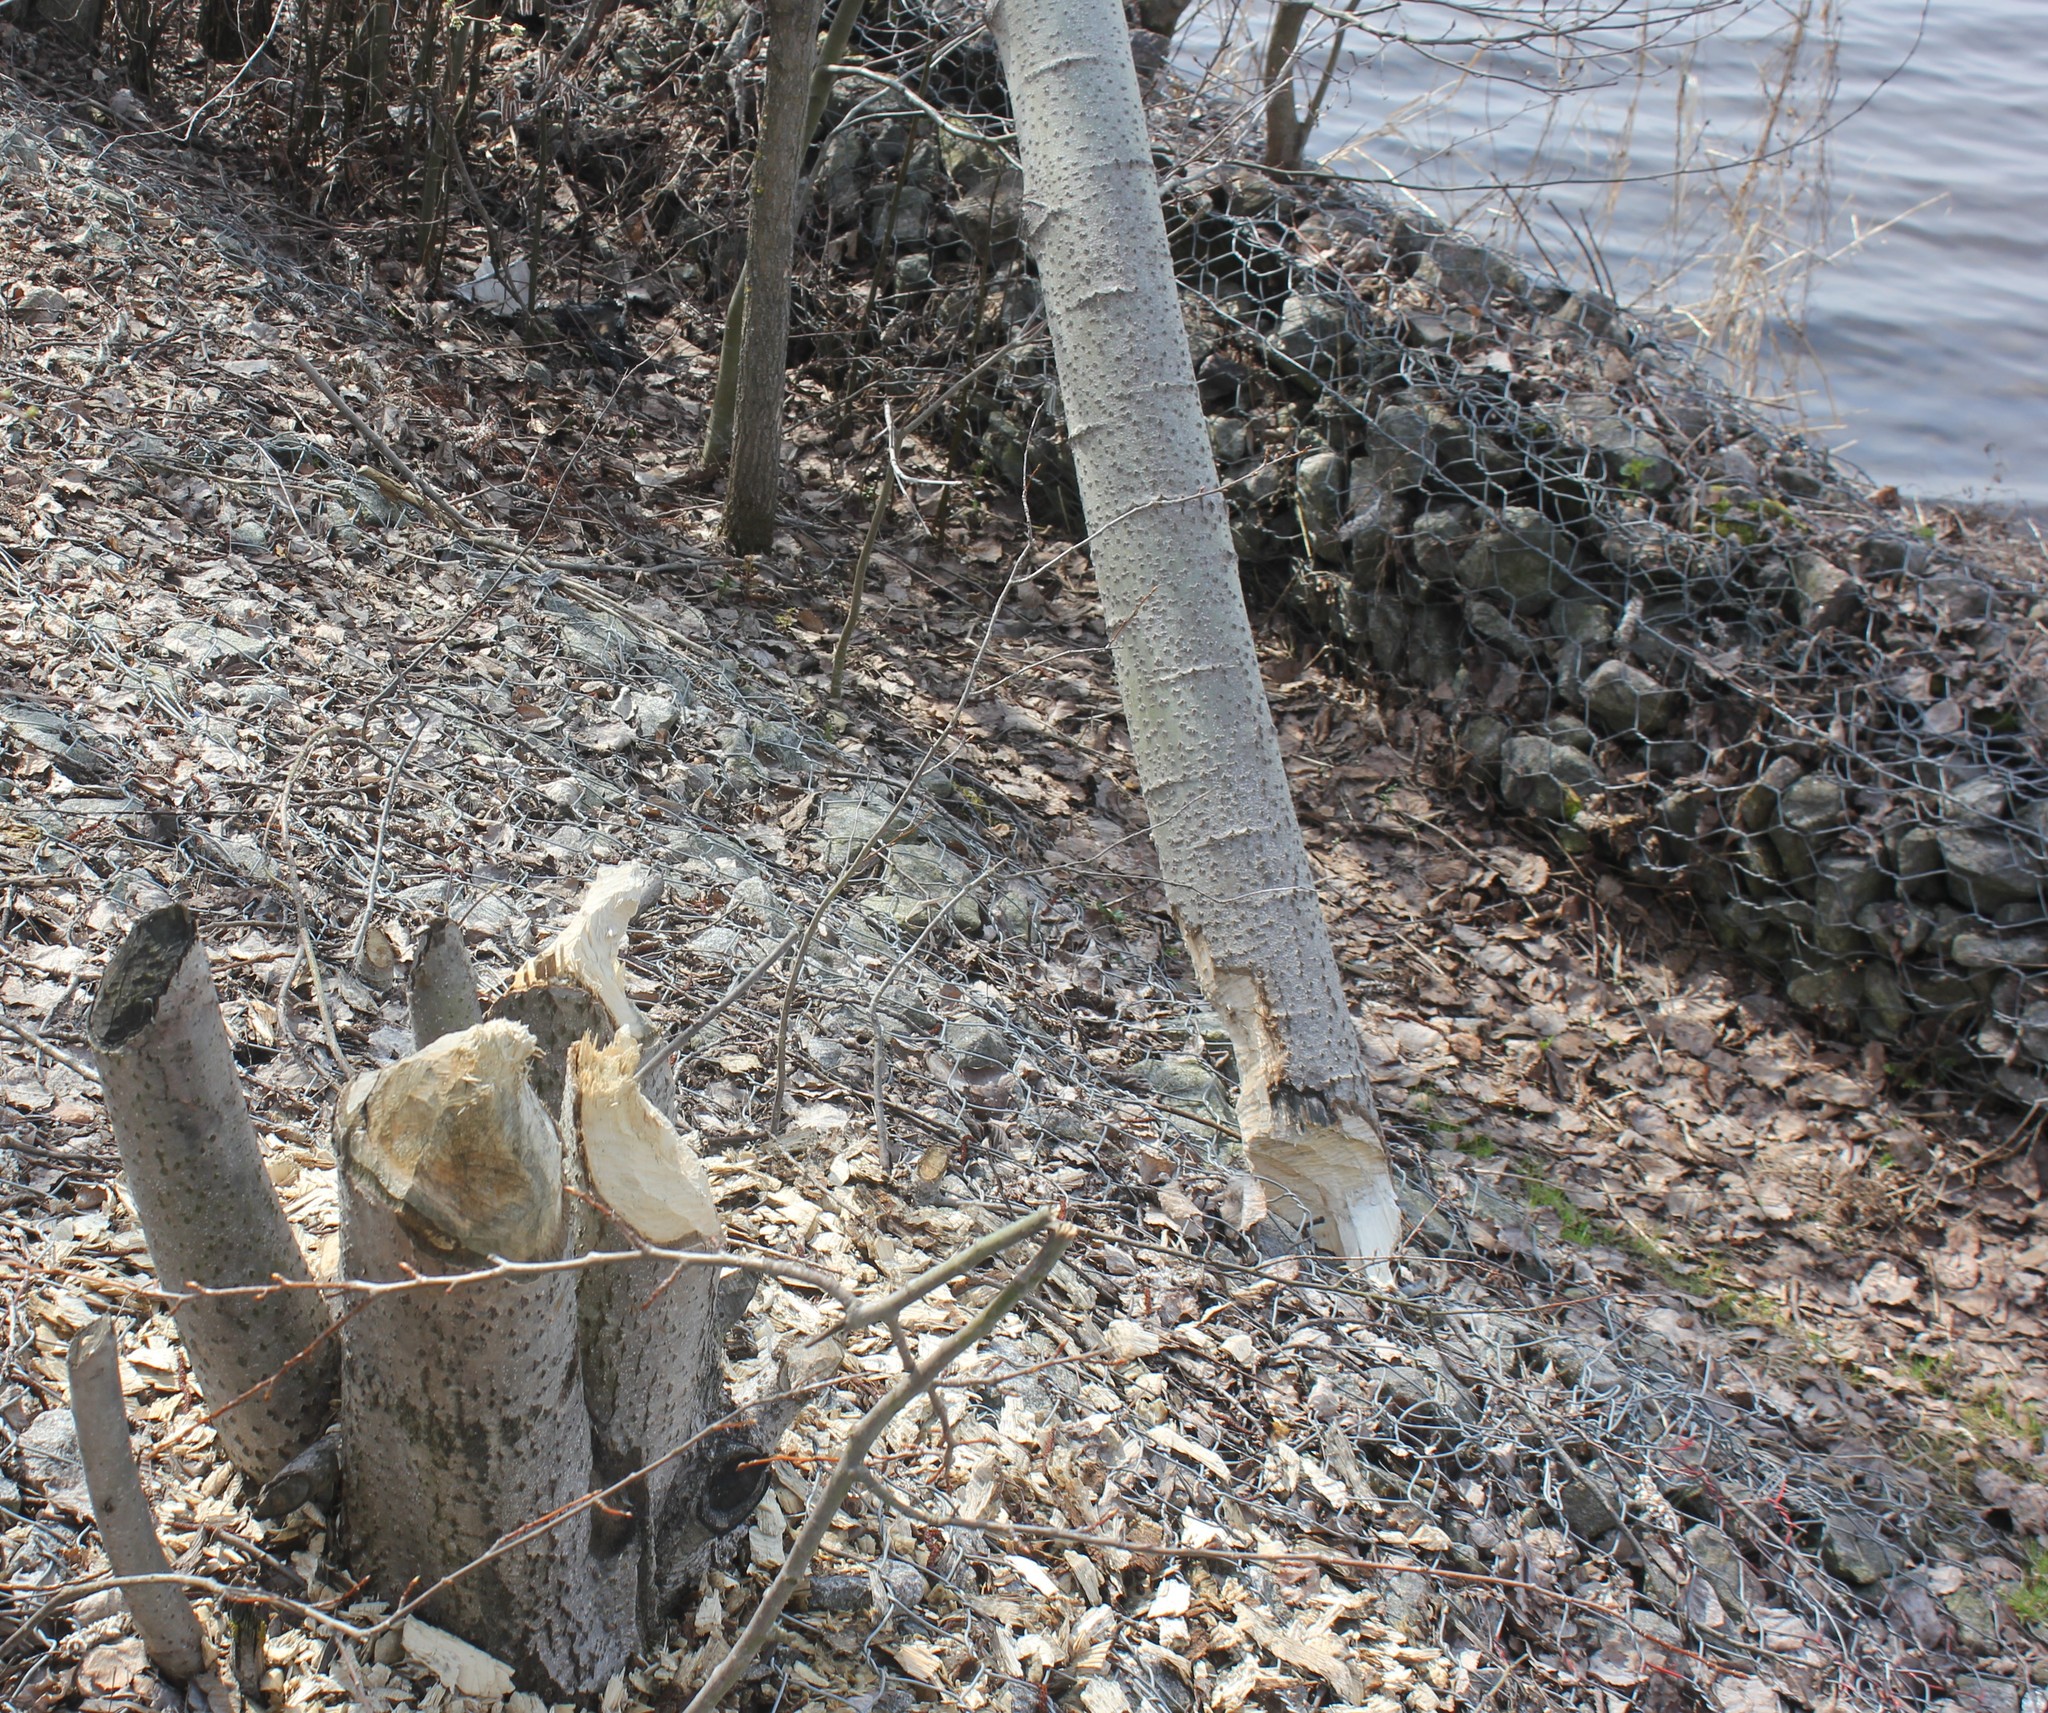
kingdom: Animalia
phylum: Chordata
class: Mammalia
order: Rodentia
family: Castoridae
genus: Castor
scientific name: Castor fiber
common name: Eurasian beaver
